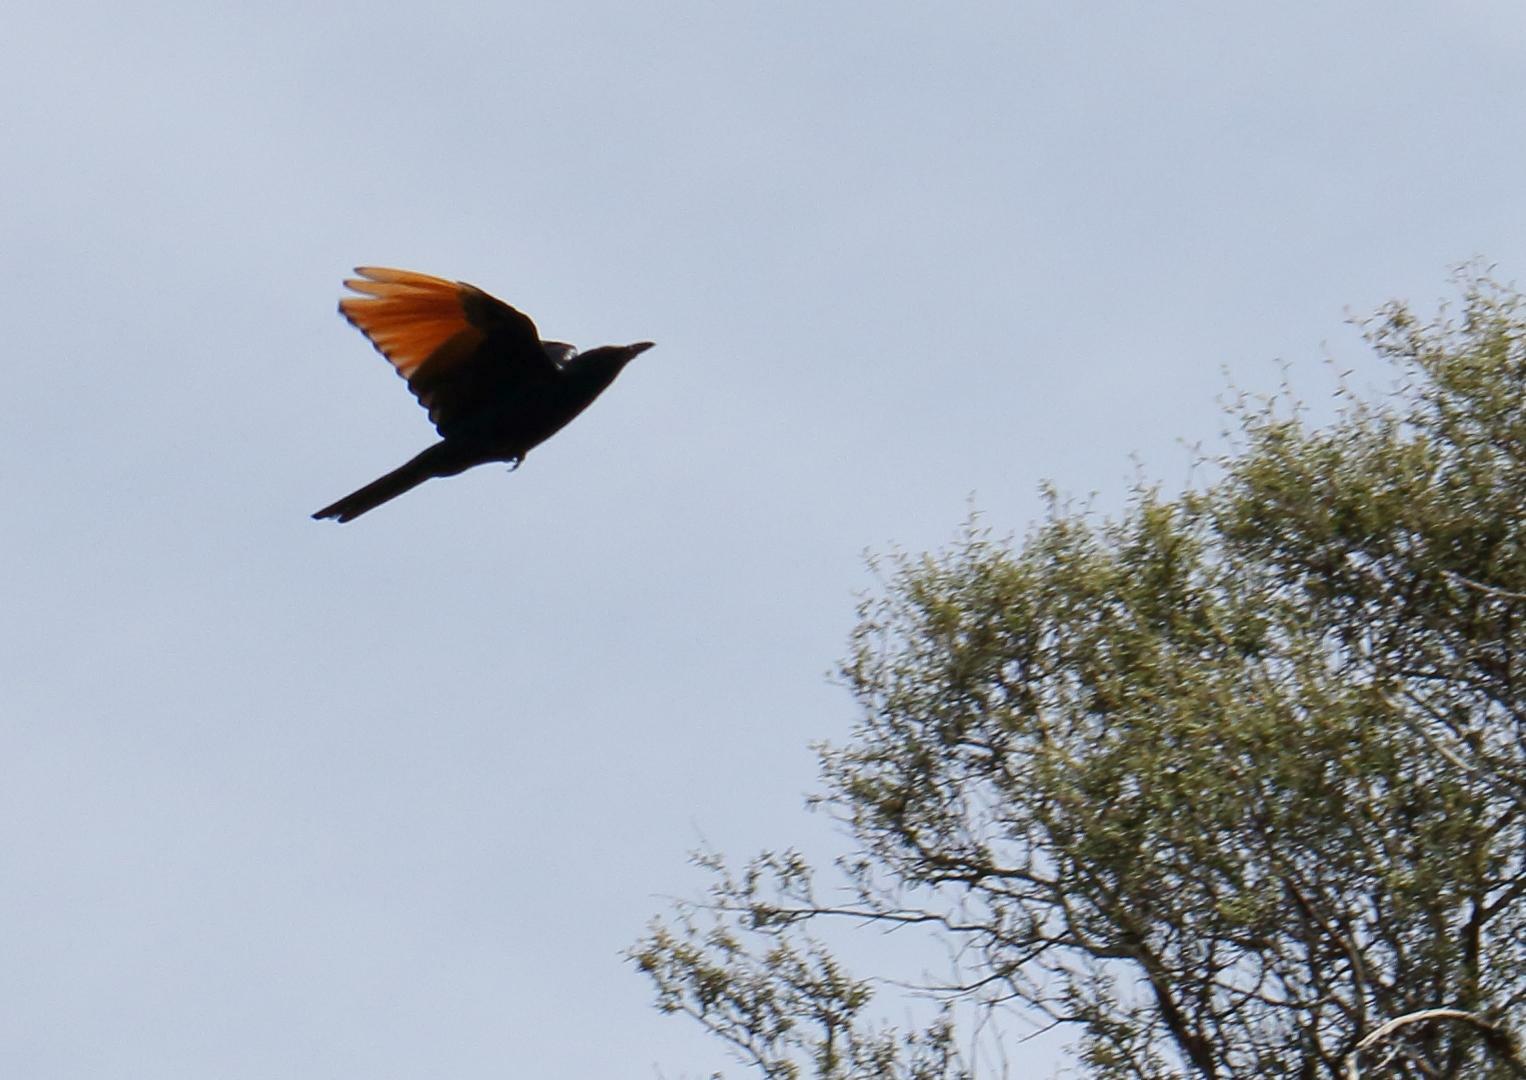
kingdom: Animalia
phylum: Chordata
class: Aves
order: Passeriformes
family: Sturnidae
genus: Onychognathus
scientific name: Onychognathus morio
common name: Red-winged starling
